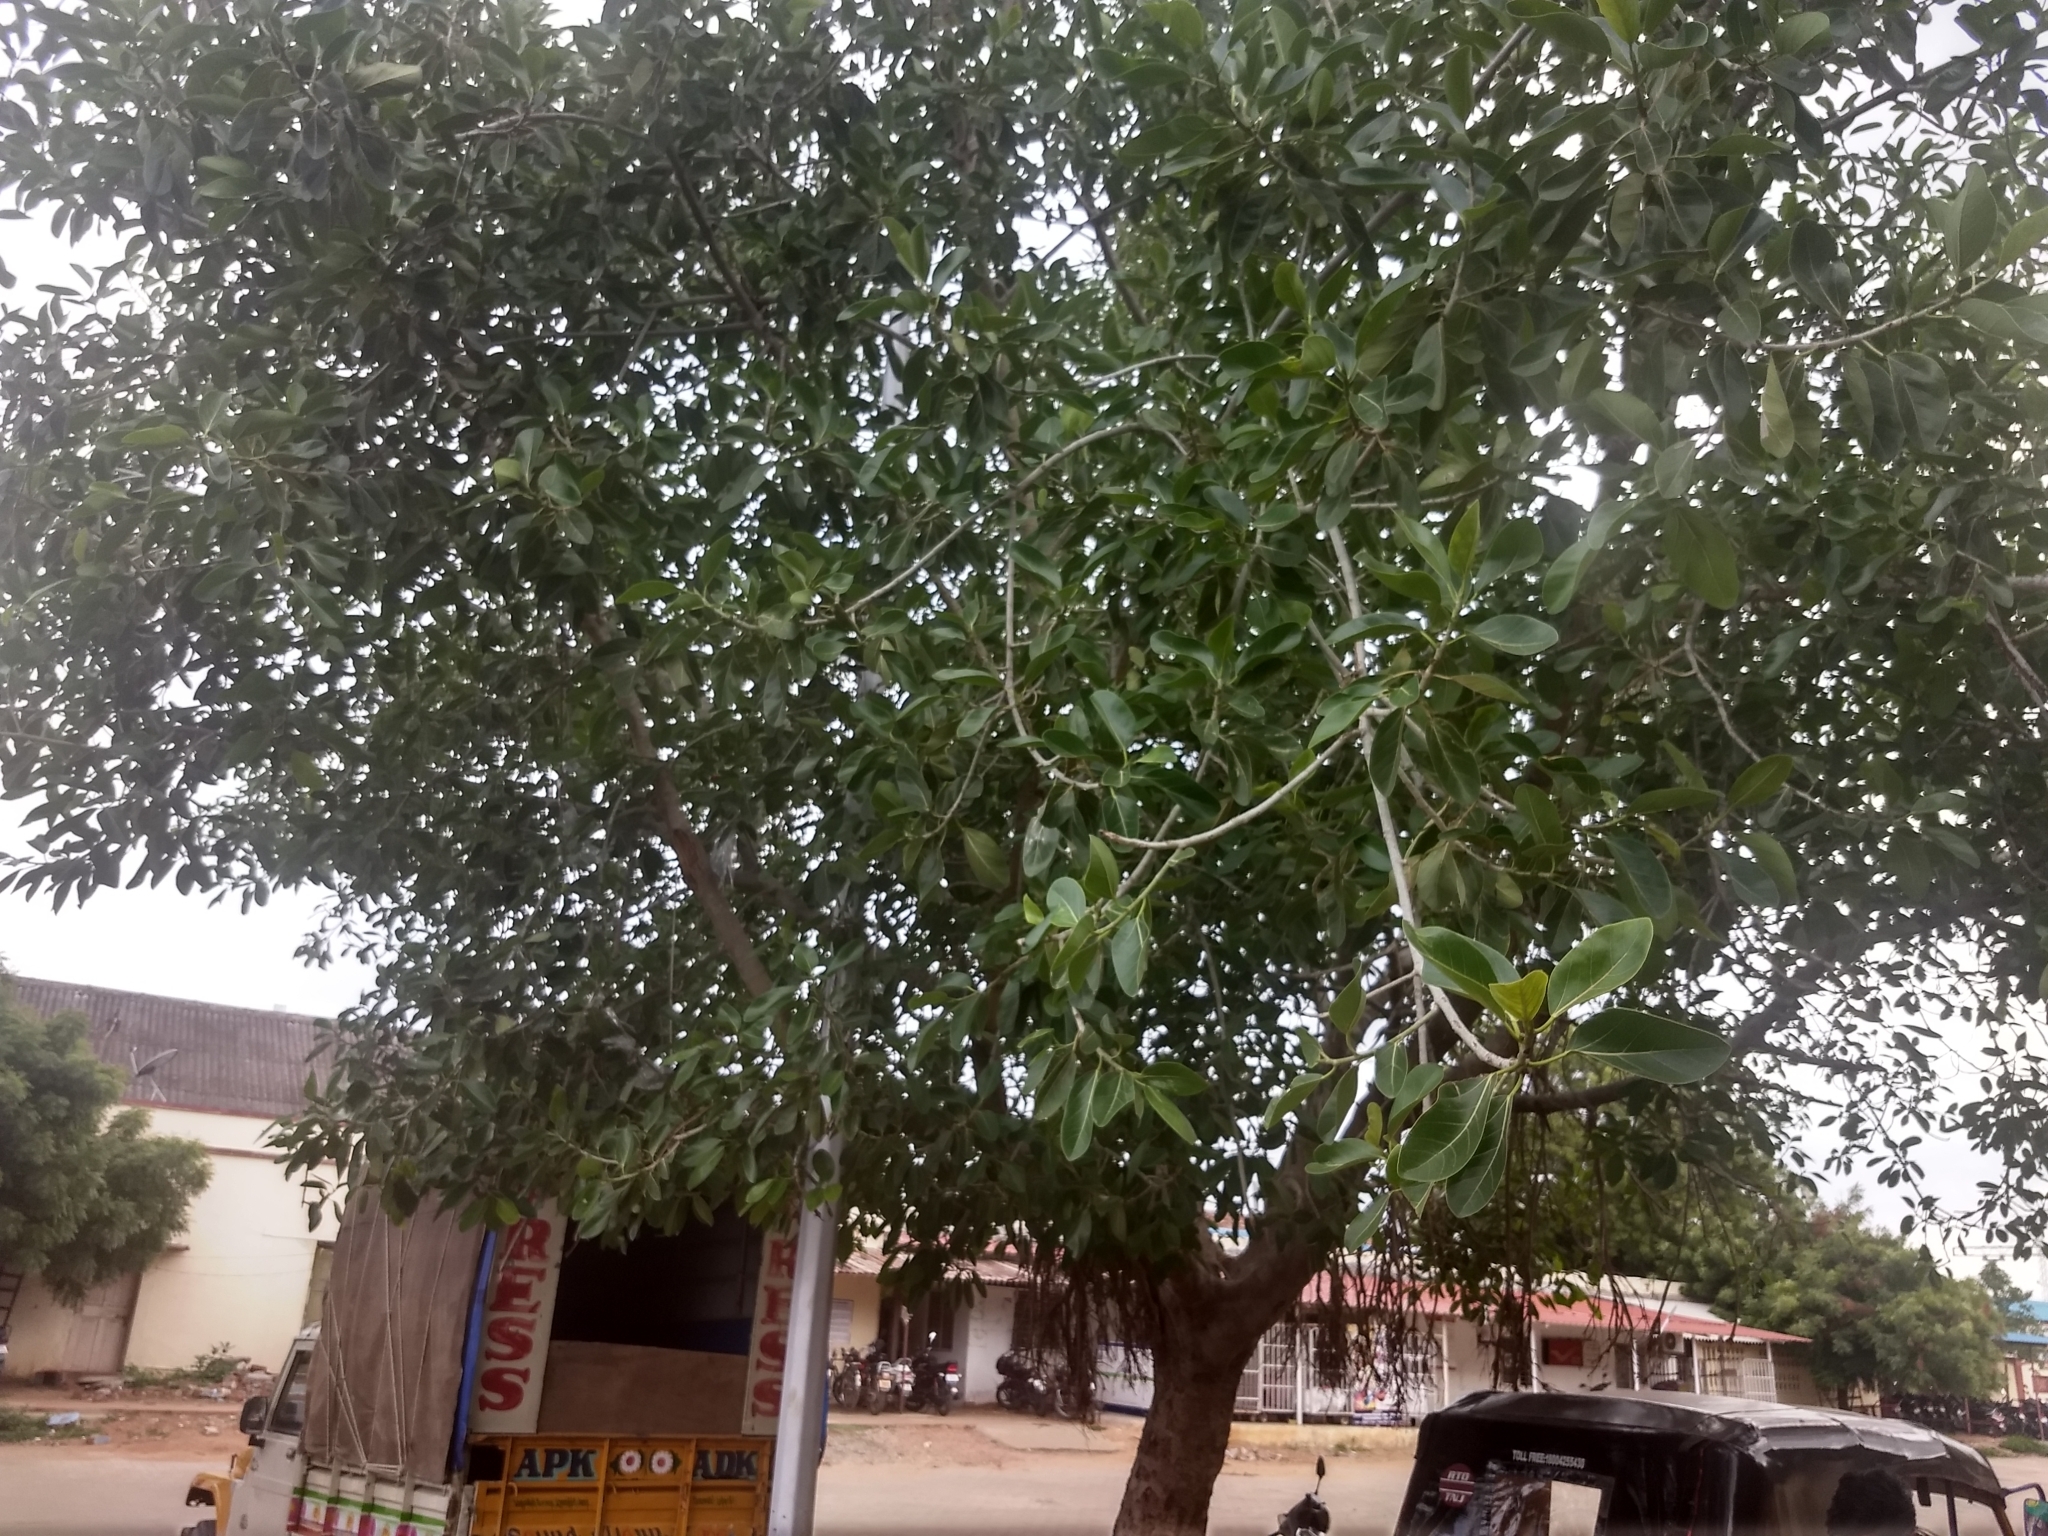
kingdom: Plantae
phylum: Tracheophyta
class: Magnoliopsida
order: Rosales
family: Moraceae
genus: Ficus
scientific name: Ficus benghalensis
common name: Indian banyan
